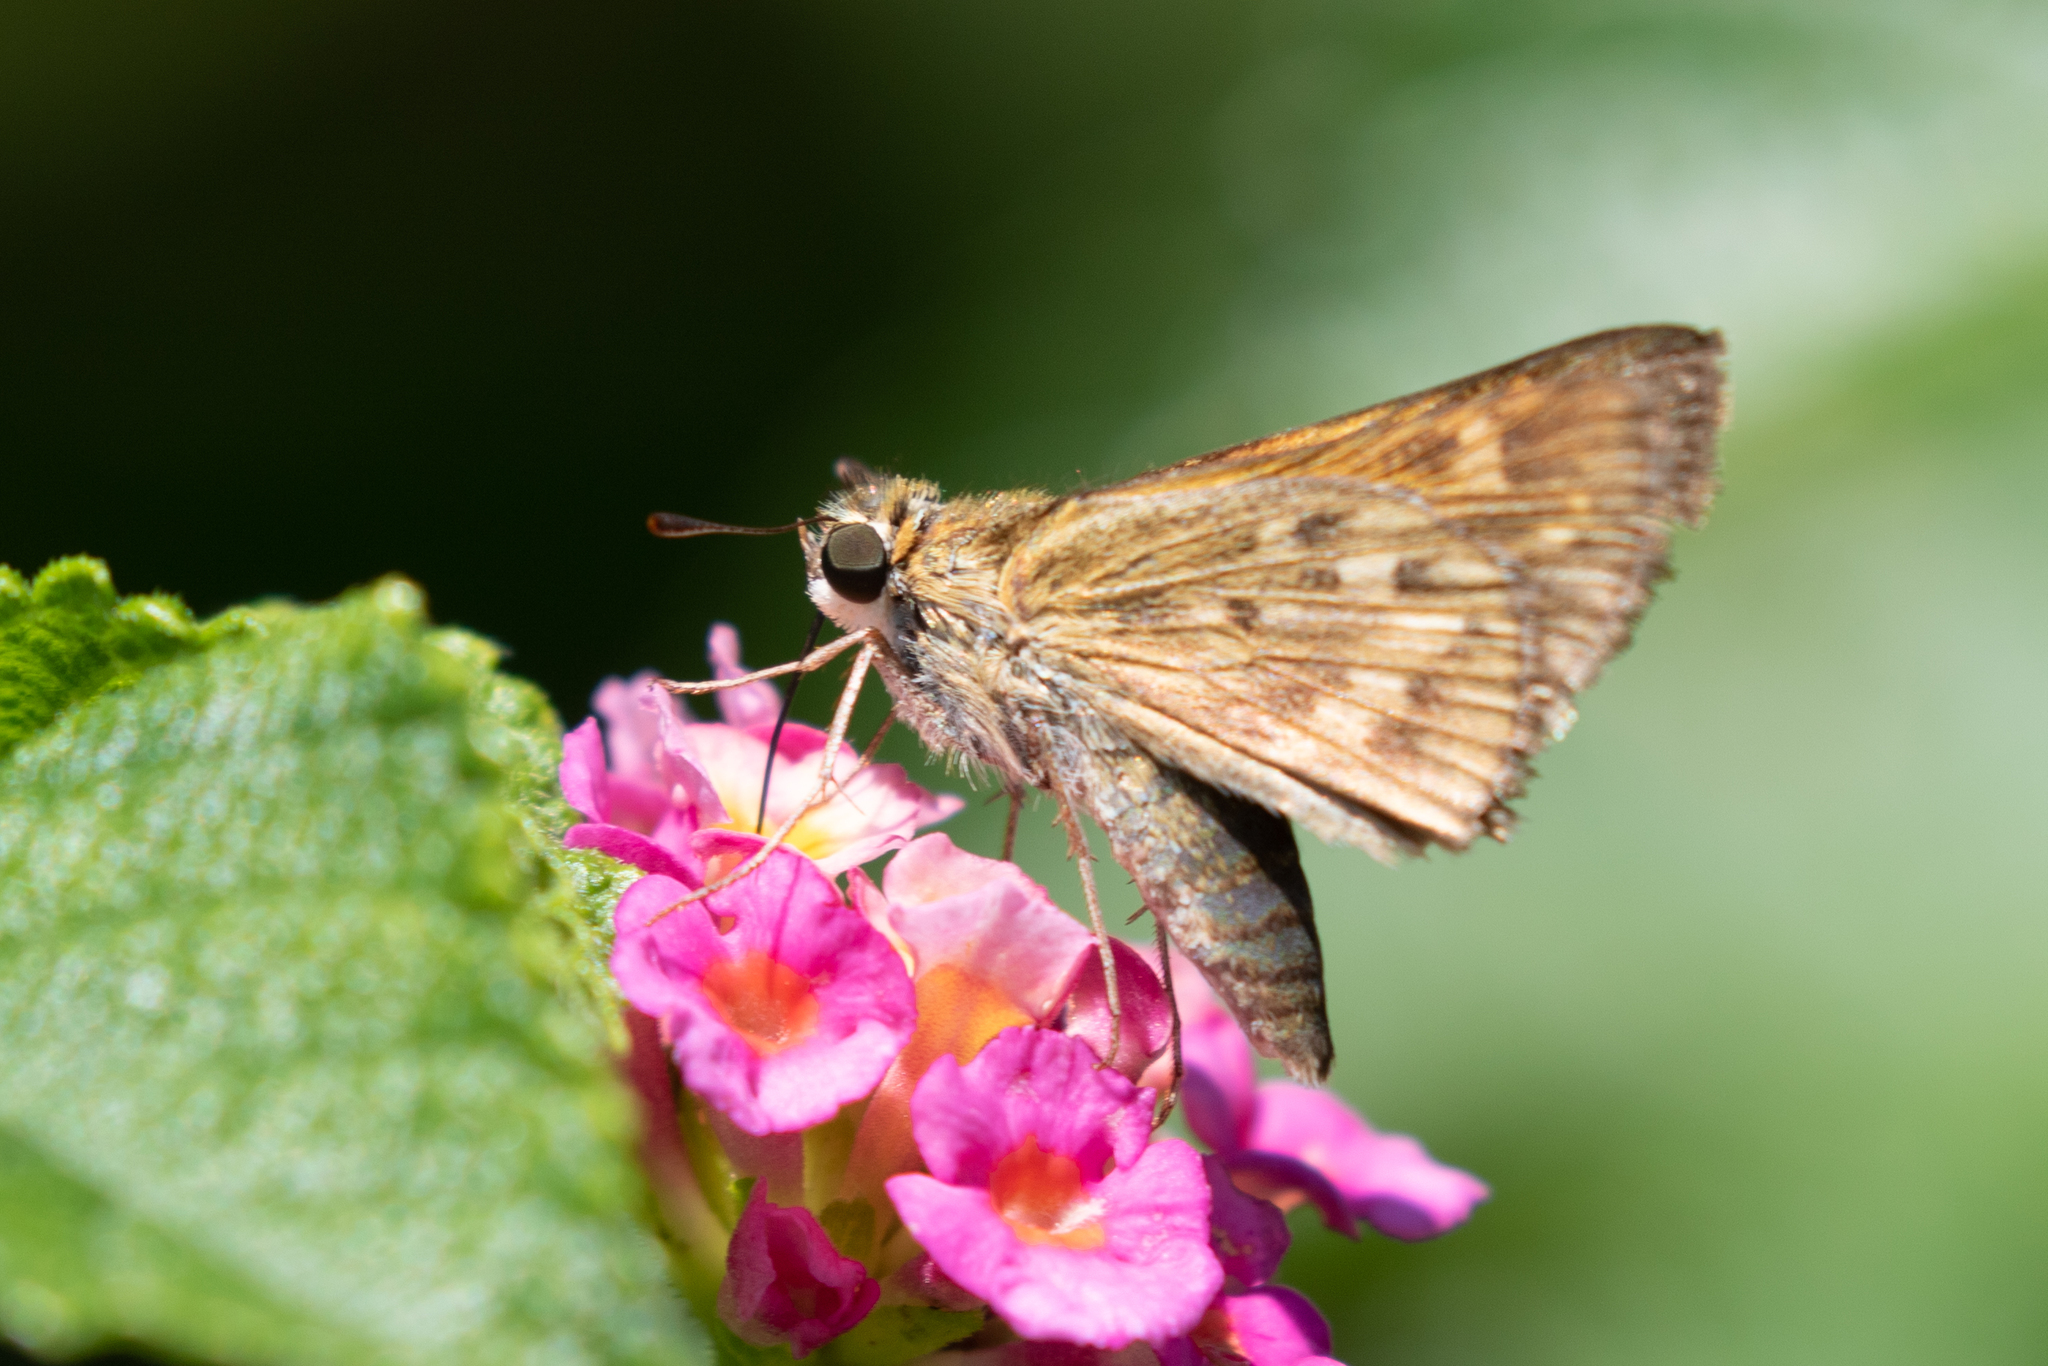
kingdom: Animalia
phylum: Arthropoda
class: Insecta
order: Lepidoptera
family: Hesperiidae
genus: Hylephila
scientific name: Hylephila phyleus
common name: Fiery skipper
